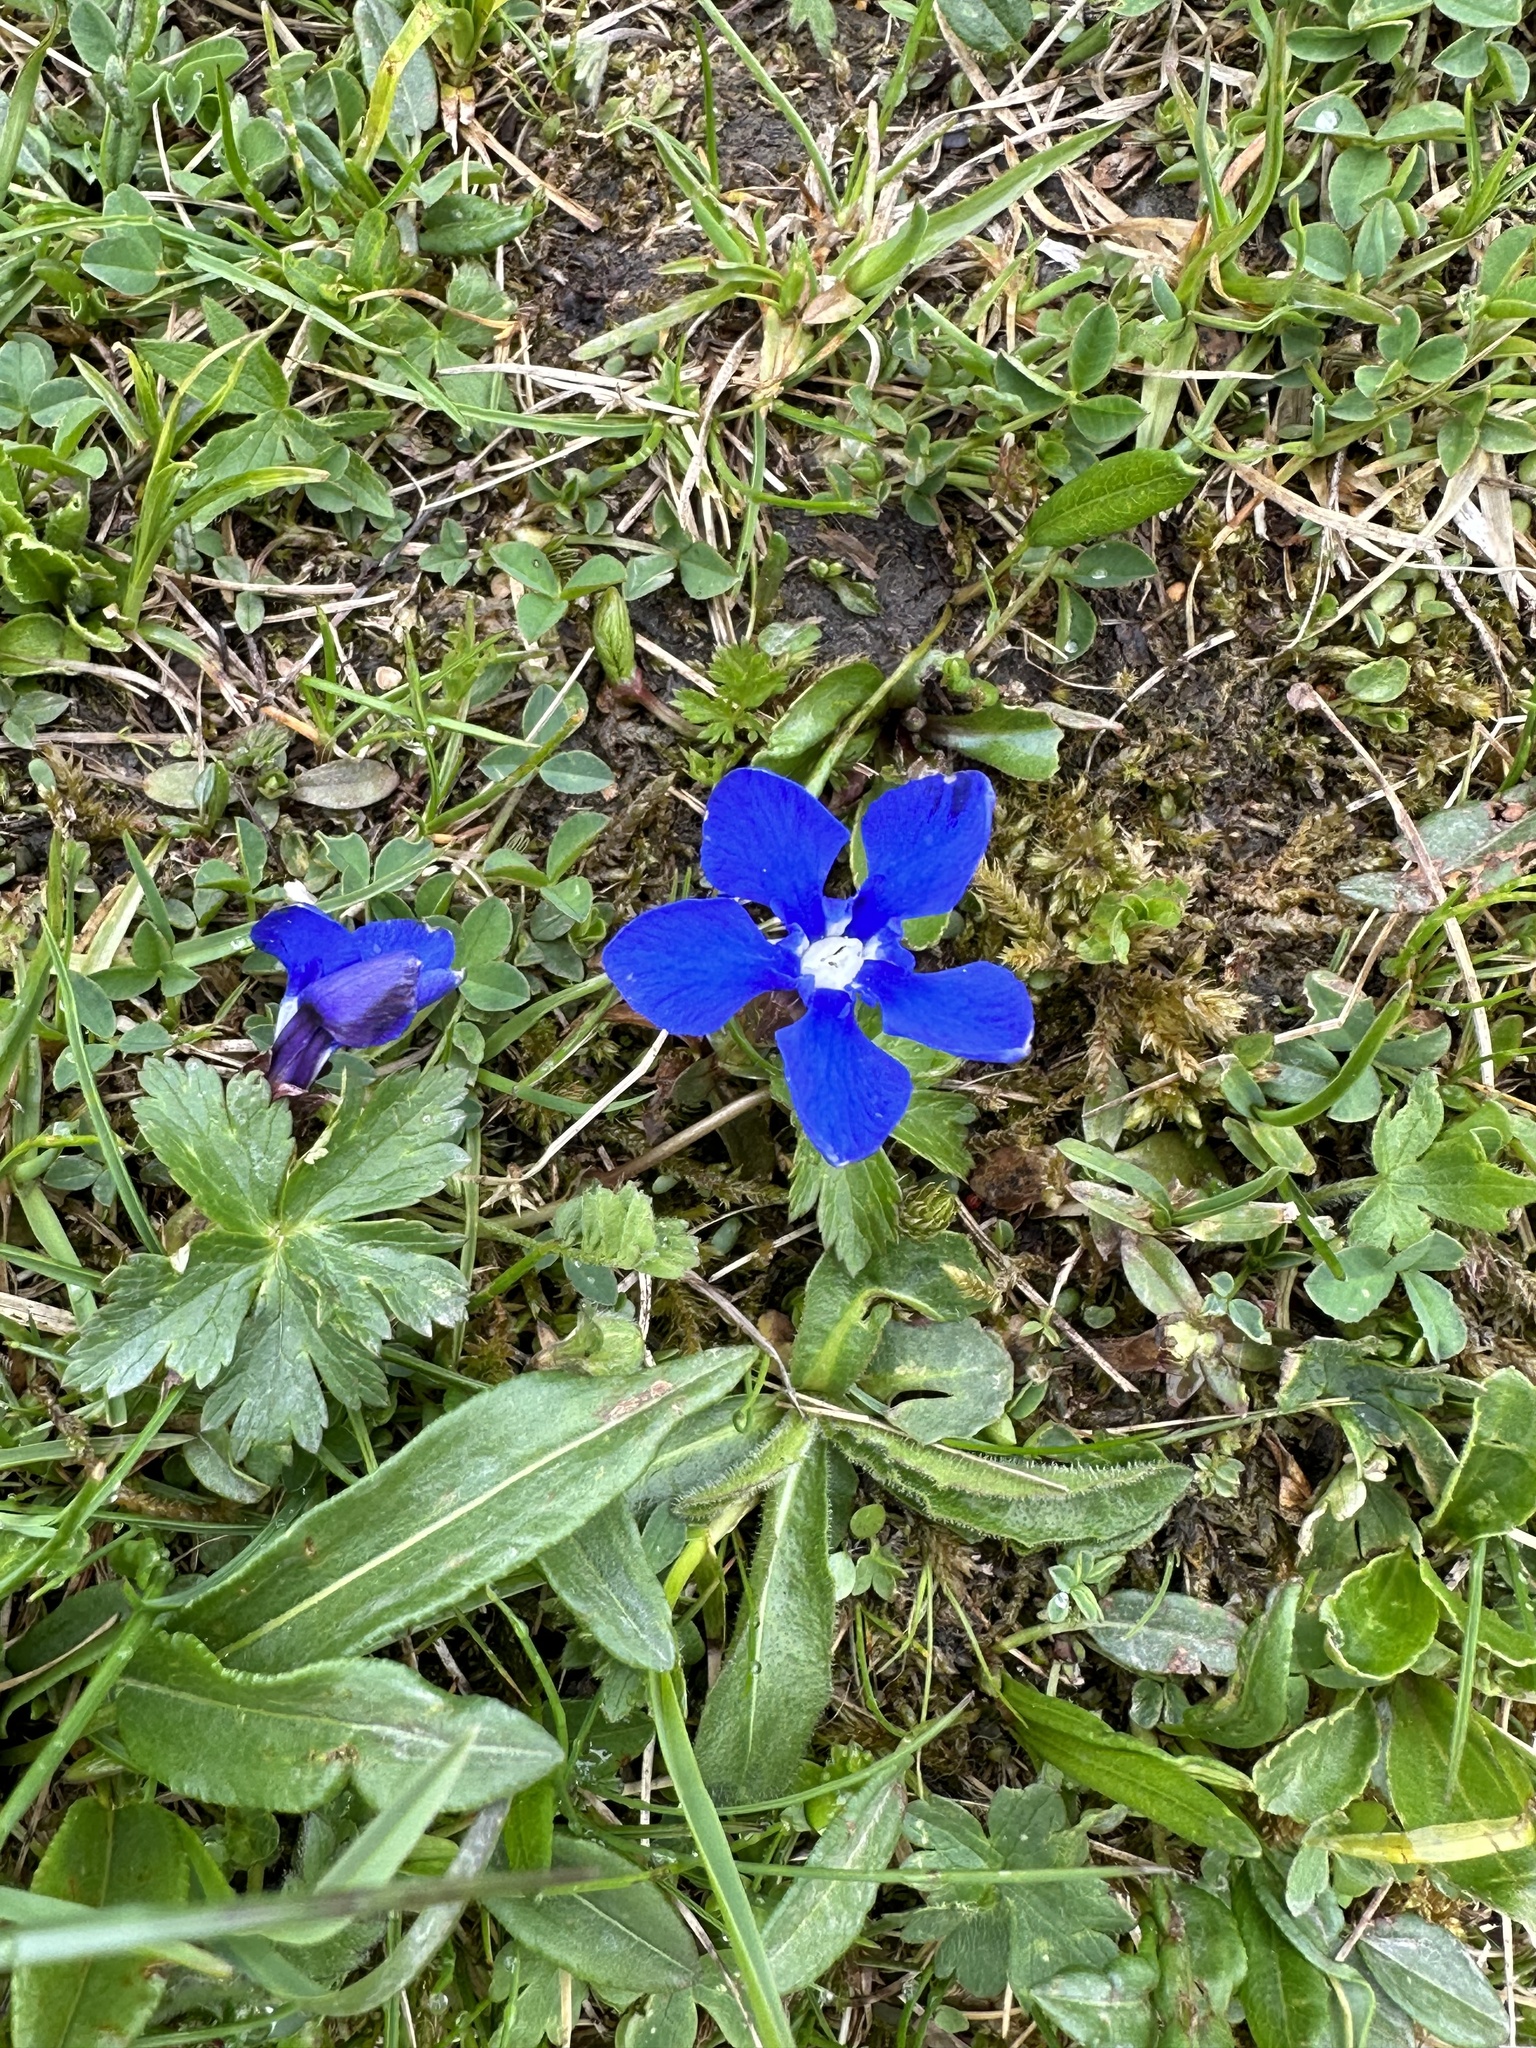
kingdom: Plantae
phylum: Tracheophyta
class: Magnoliopsida
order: Gentianales
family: Gentianaceae
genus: Gentiana
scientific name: Gentiana verna
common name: Spring gentian
